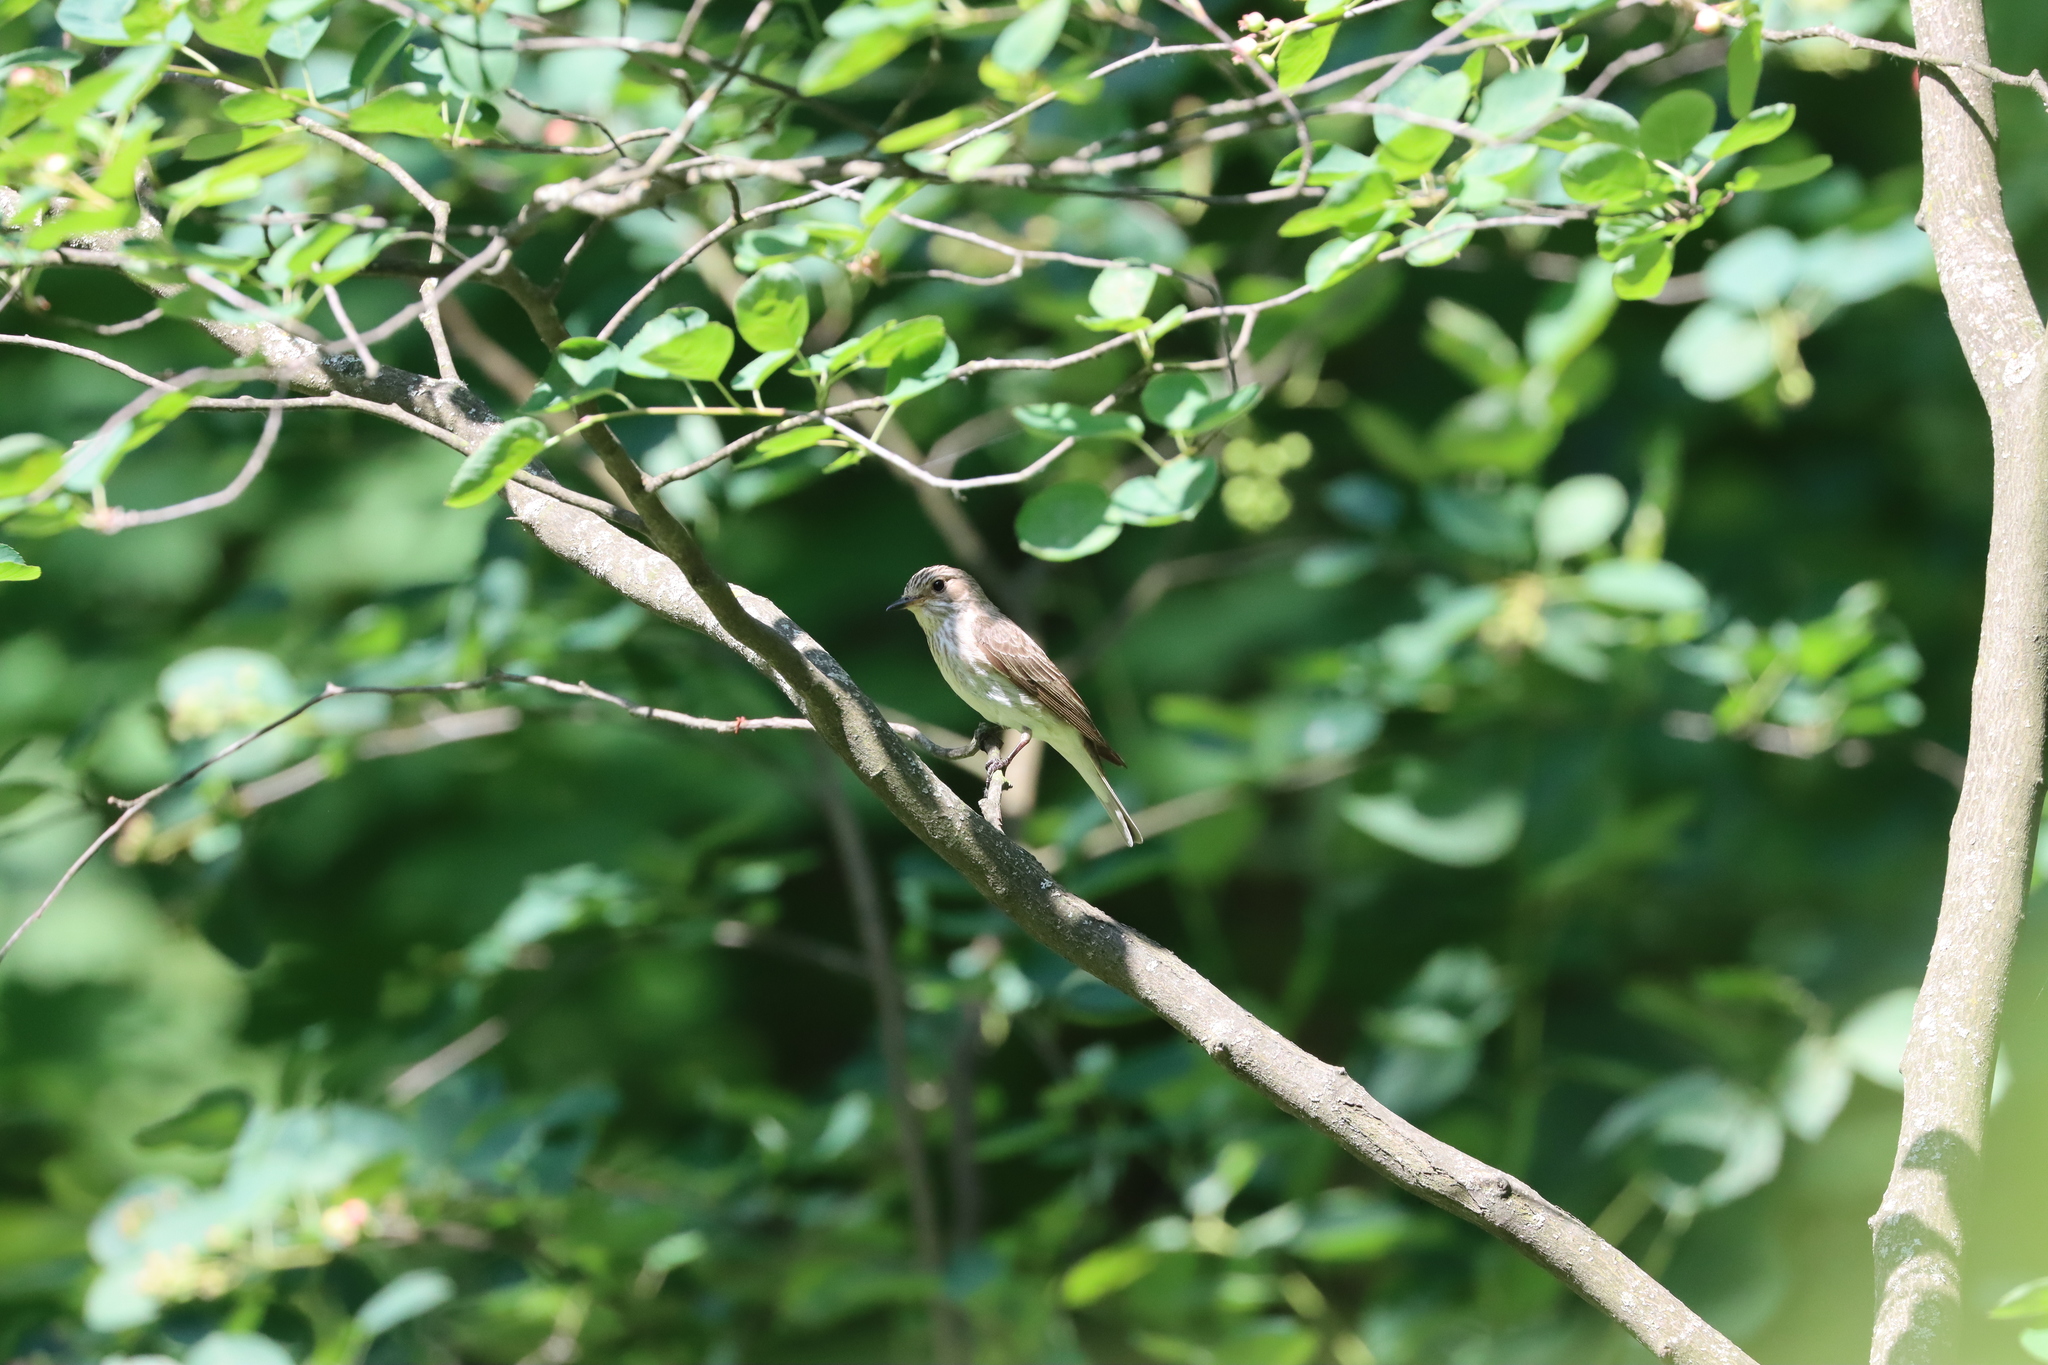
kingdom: Animalia
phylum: Chordata
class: Aves
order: Passeriformes
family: Muscicapidae
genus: Muscicapa
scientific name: Muscicapa striata
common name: Spotted flycatcher
